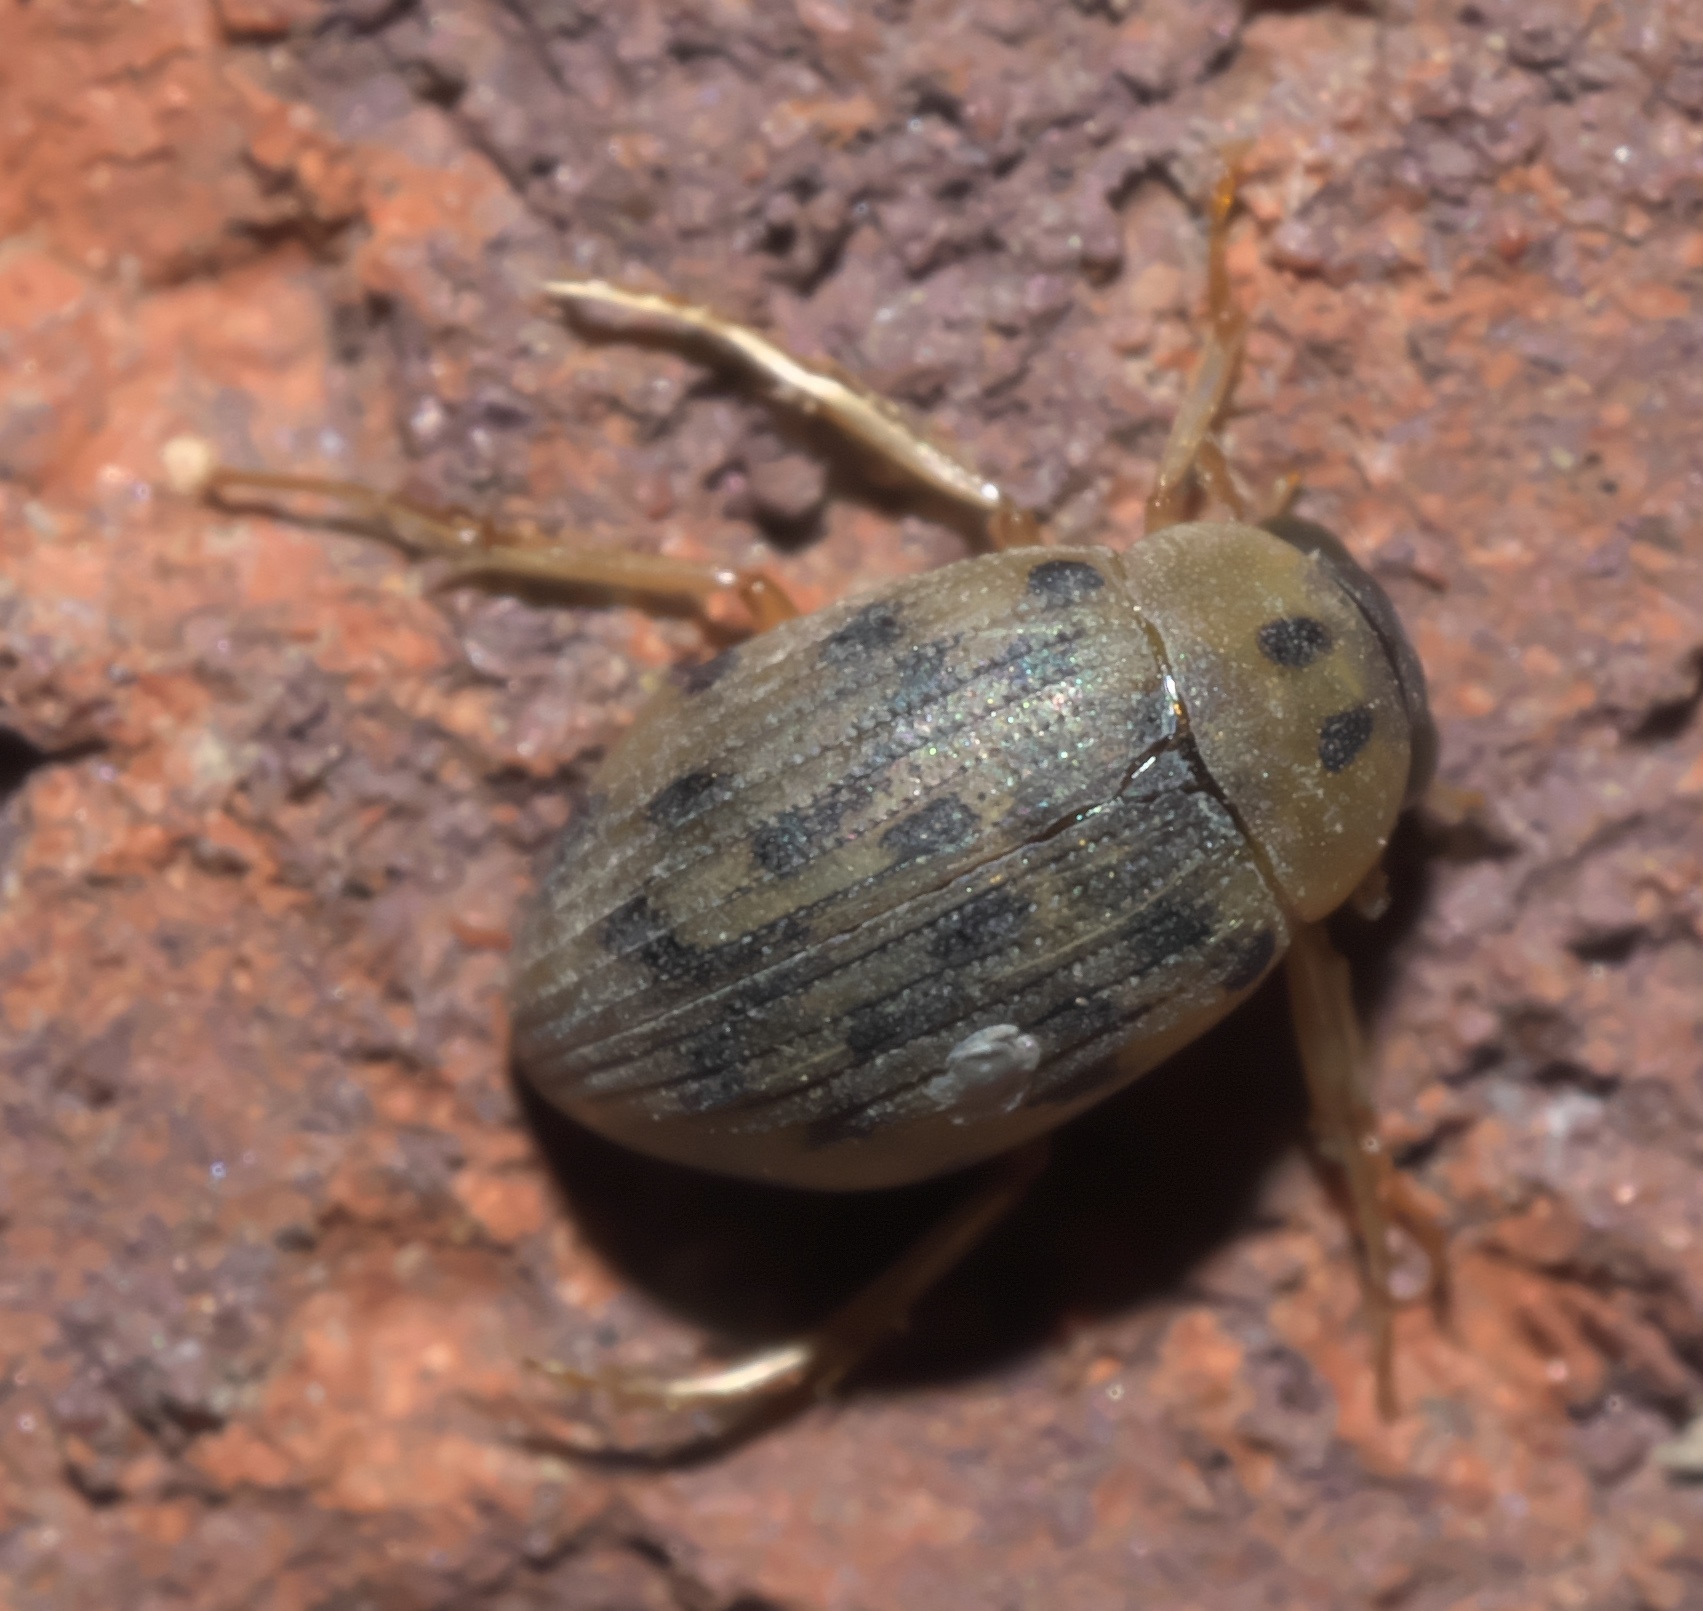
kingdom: Animalia
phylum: Arthropoda
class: Insecta
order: Coleoptera
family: Hydrophilidae
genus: Berosus
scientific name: Berosus pantherinus
